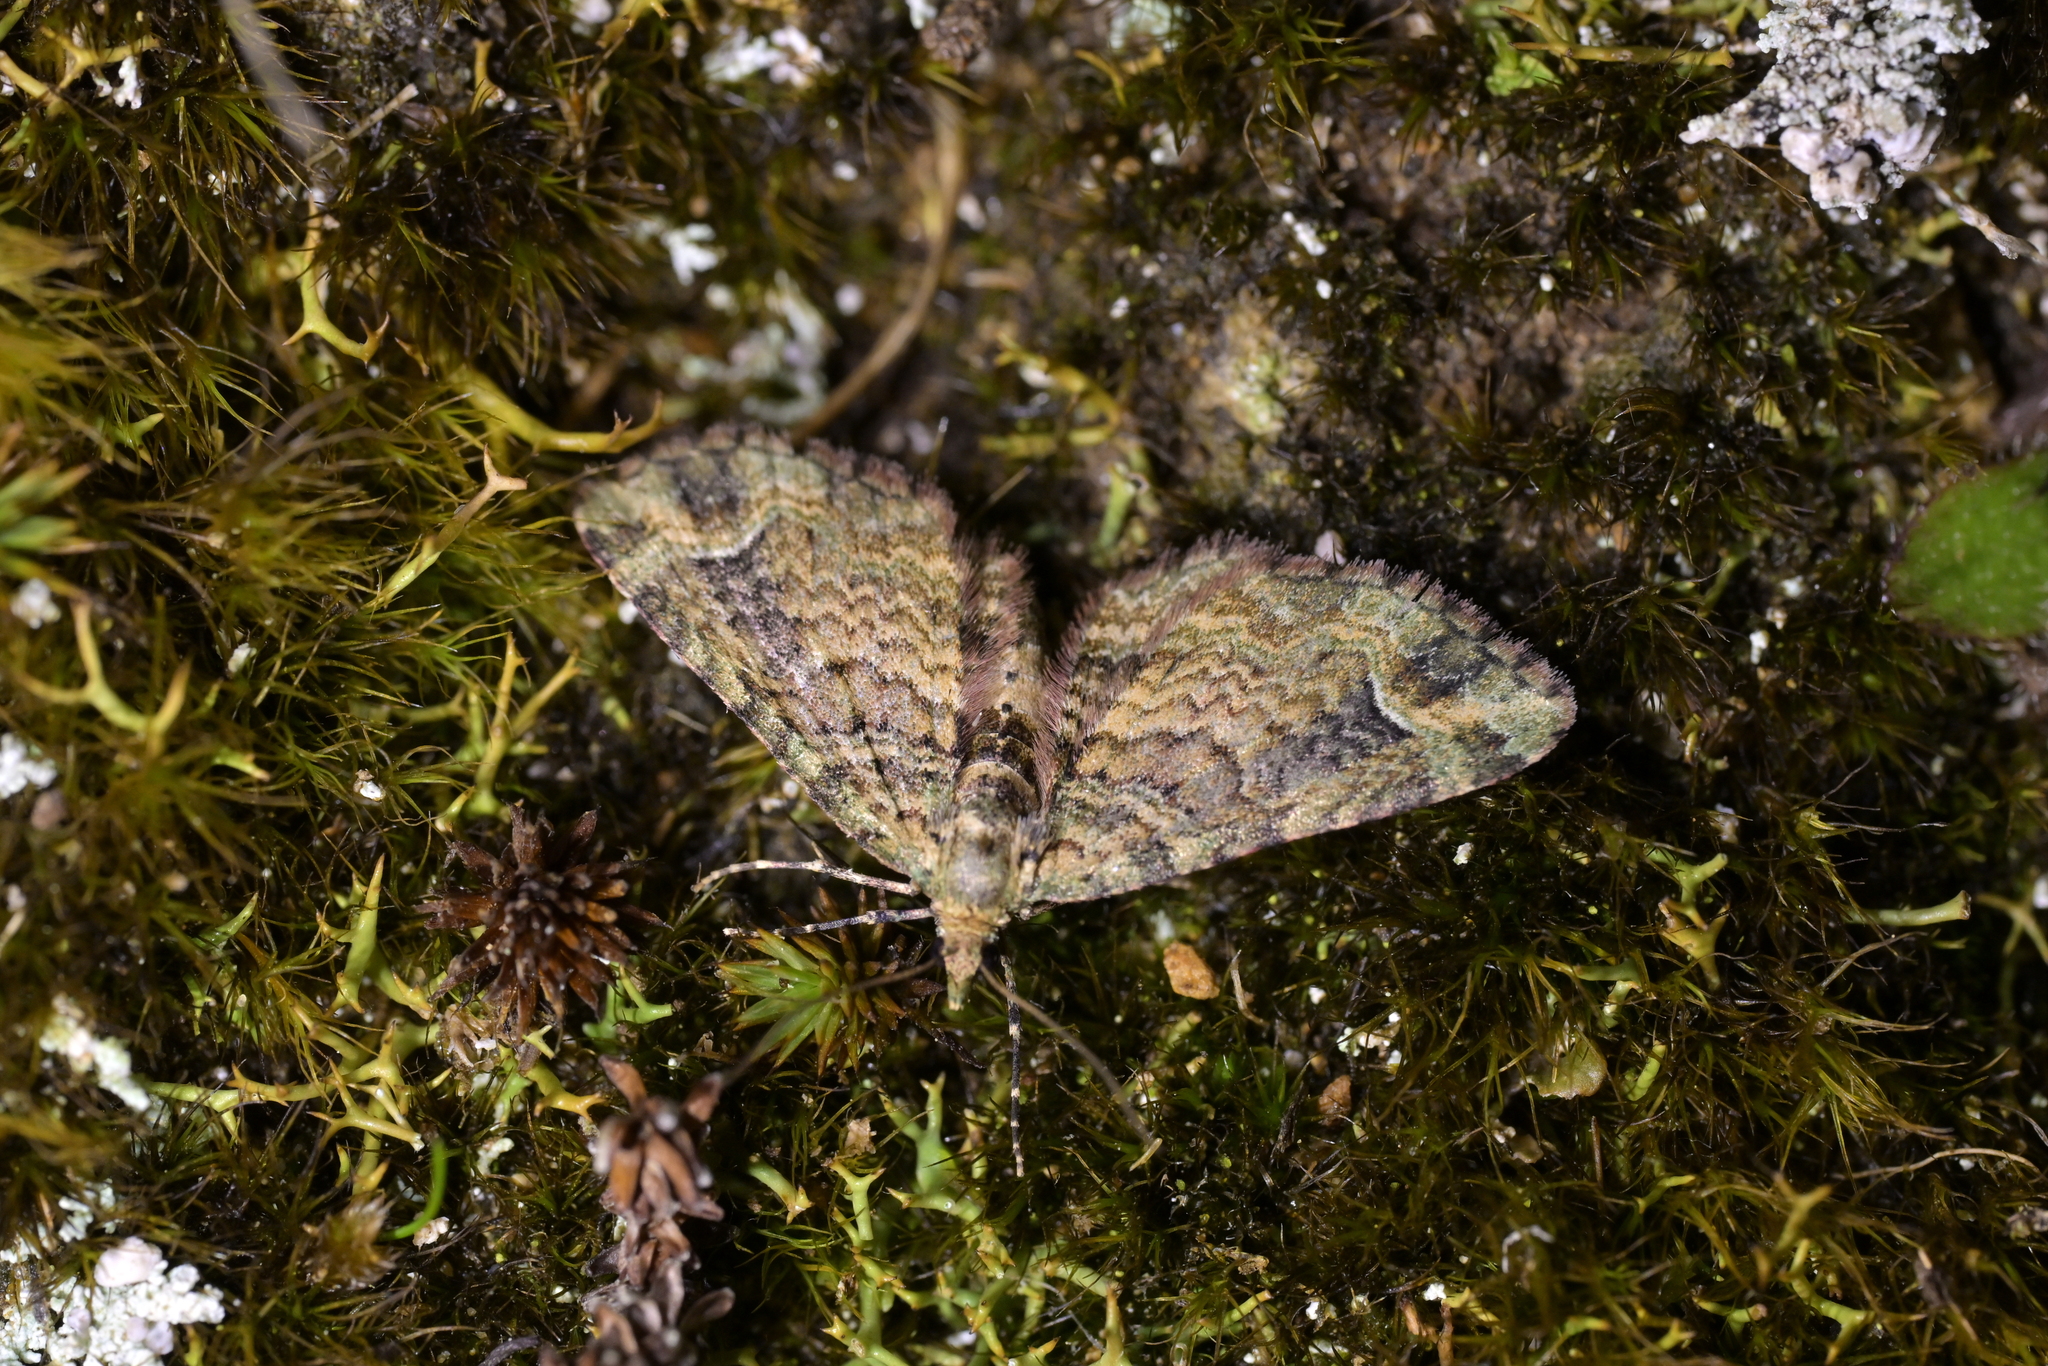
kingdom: Animalia
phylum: Arthropoda
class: Insecta
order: Lepidoptera
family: Geometridae
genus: Idaea
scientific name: Idaea mutanda
